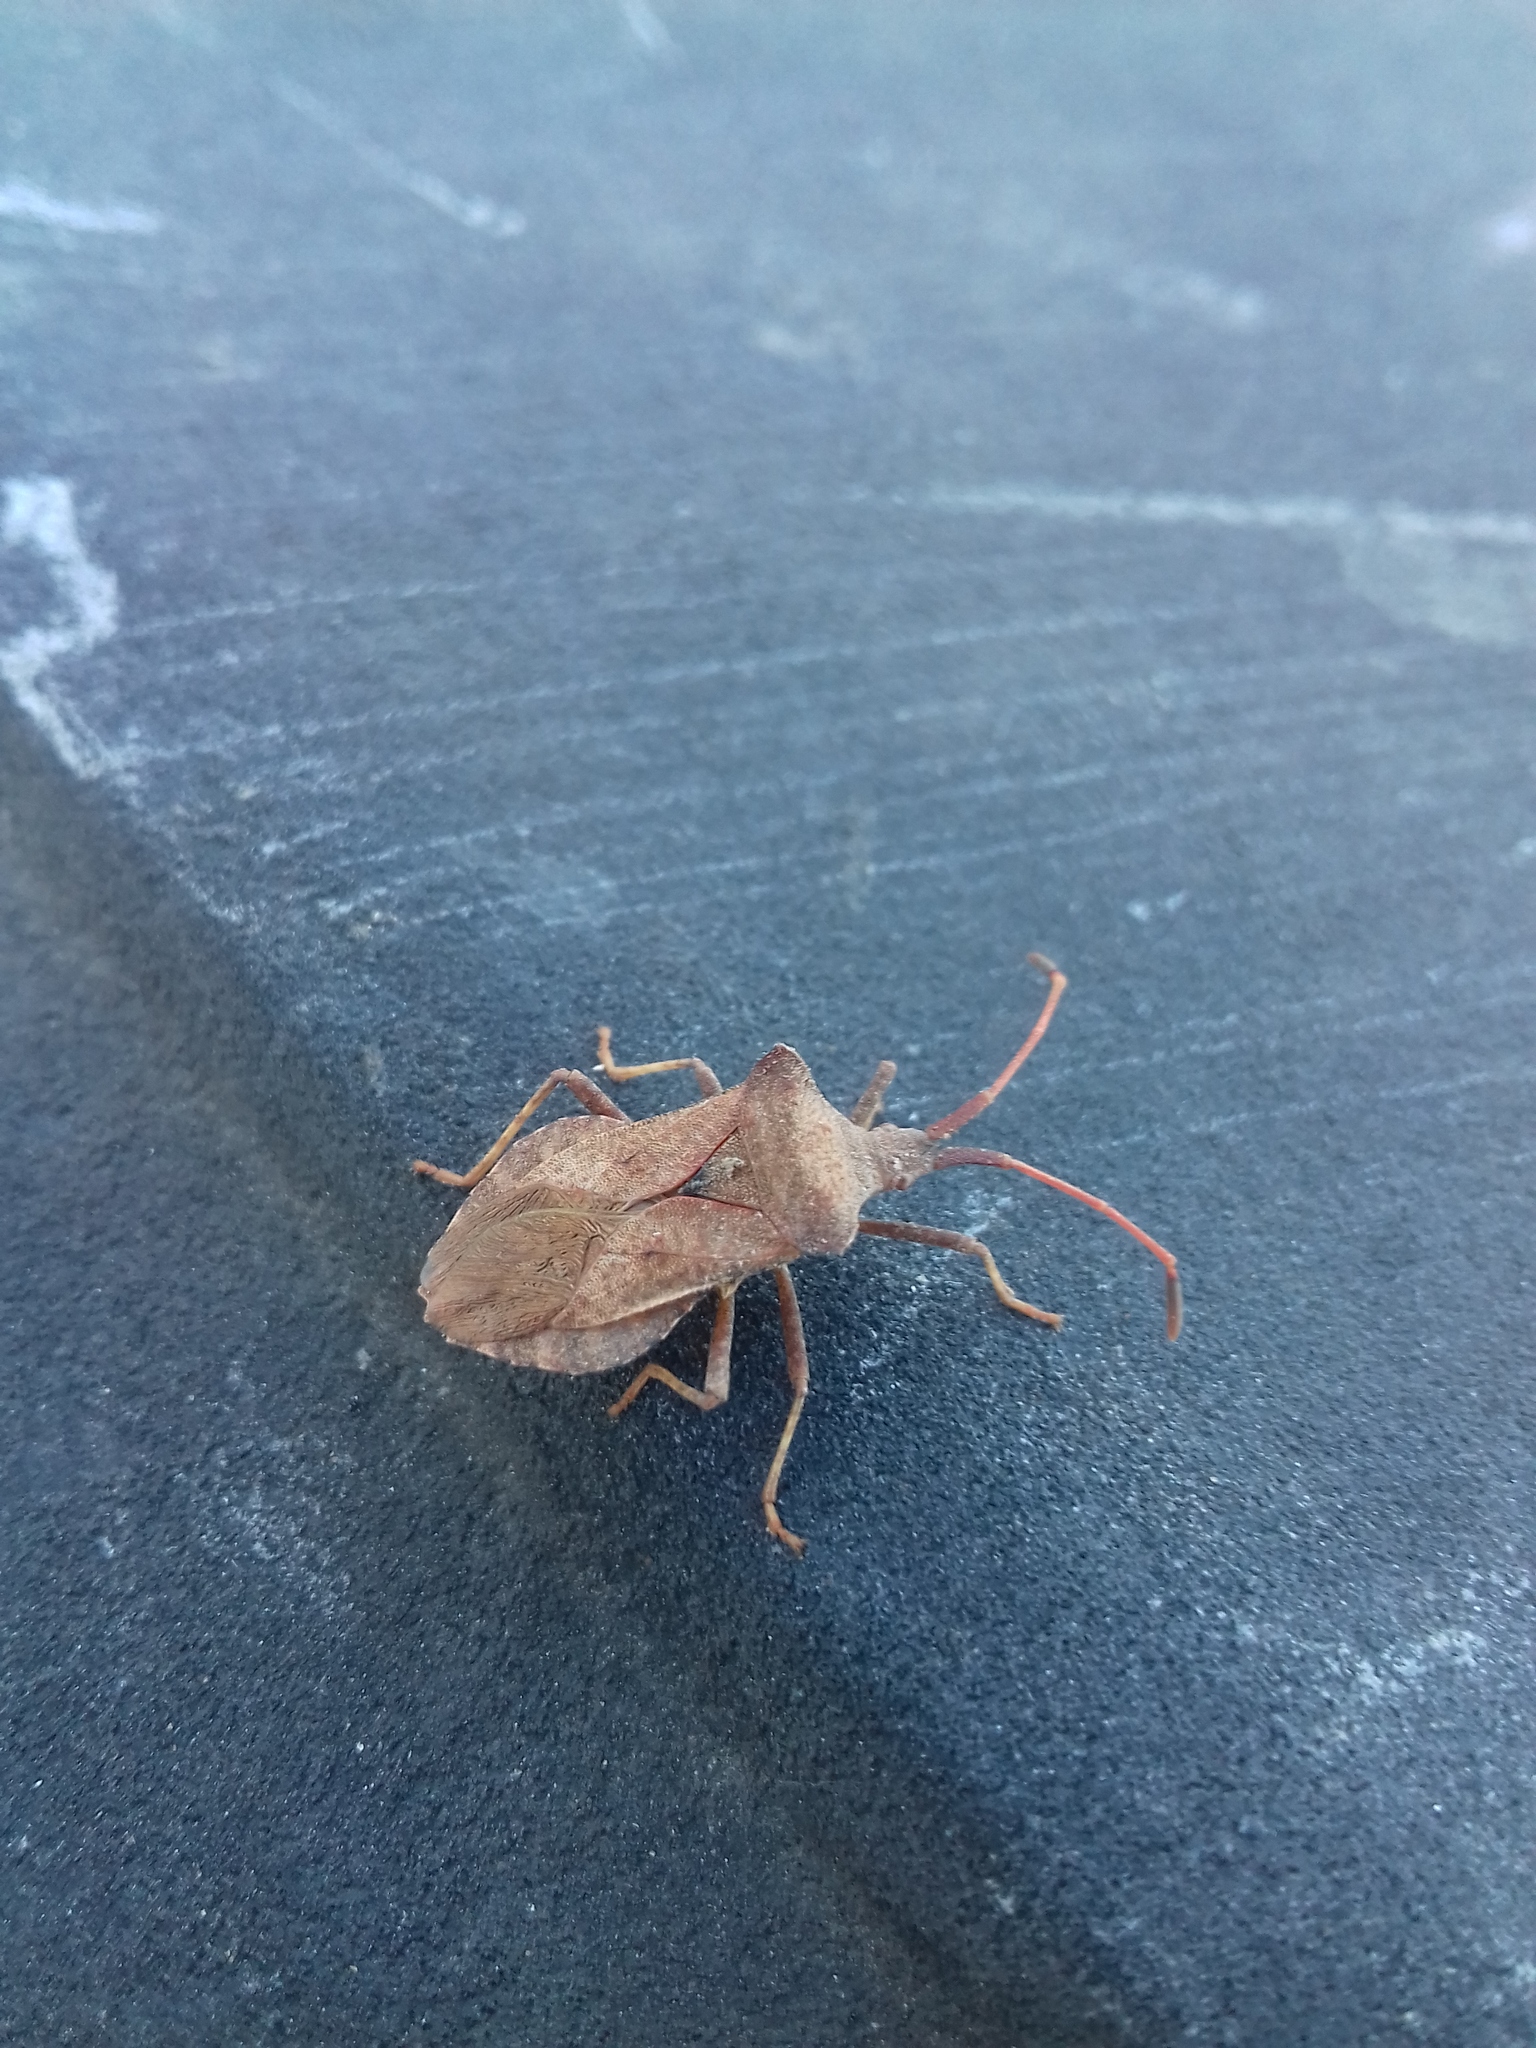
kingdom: Animalia
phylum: Arthropoda
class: Insecta
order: Hemiptera
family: Coreidae
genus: Coreus
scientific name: Coreus marginatus
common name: Dock bug
